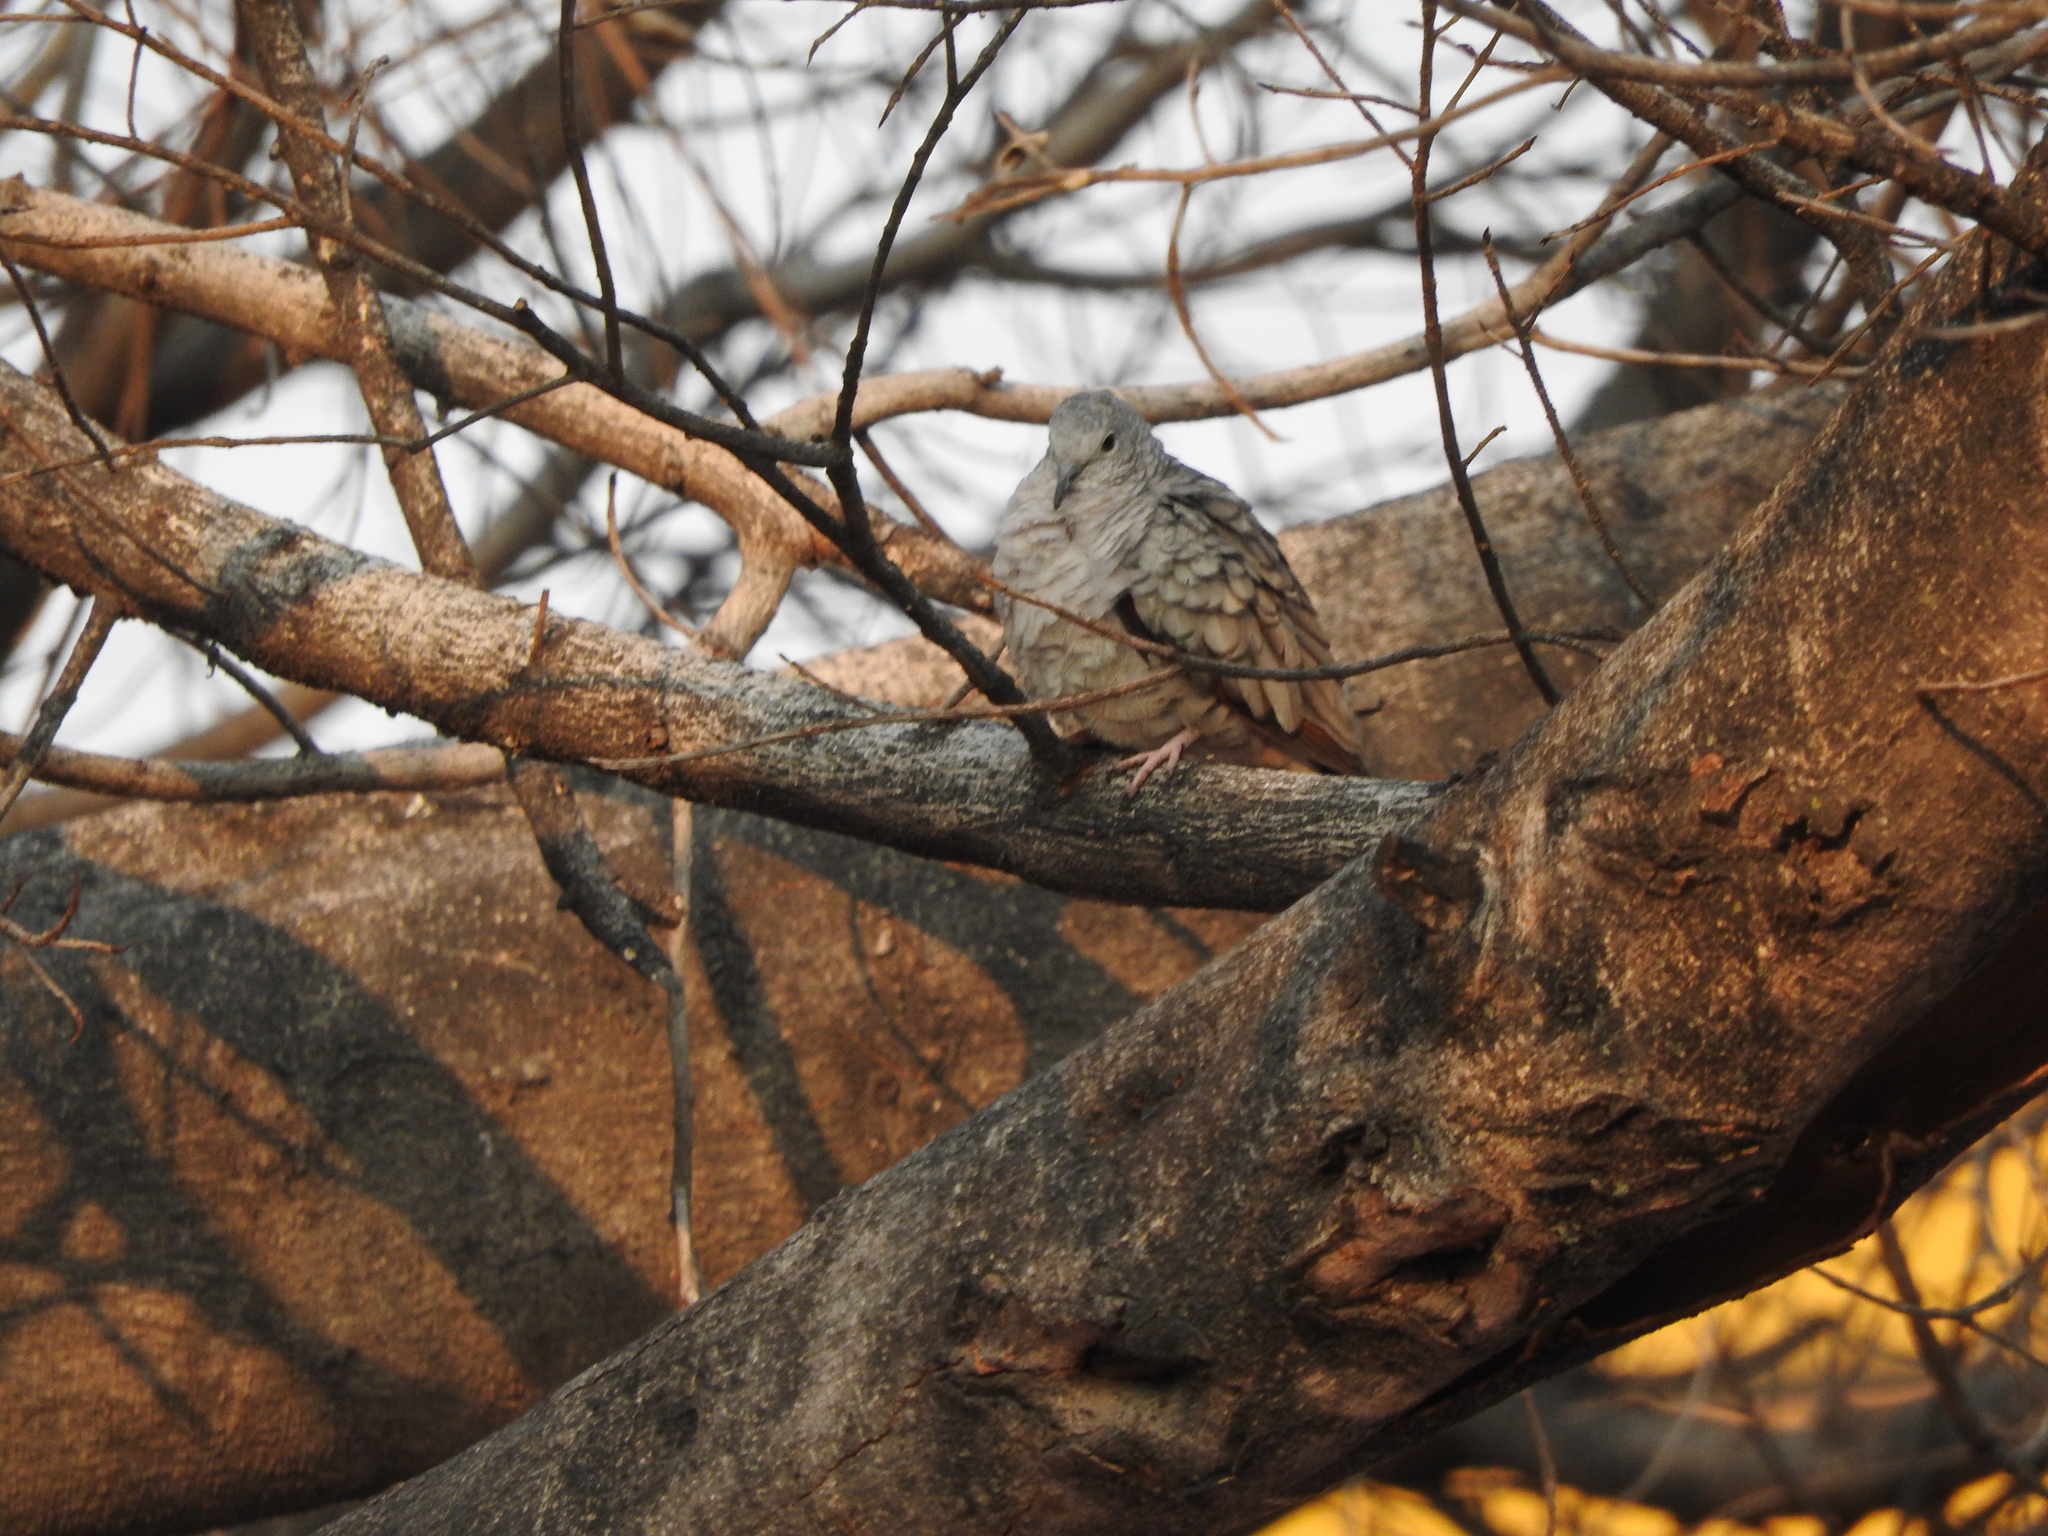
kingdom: Animalia
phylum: Chordata
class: Aves
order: Columbiformes
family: Columbidae
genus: Columbina
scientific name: Columbina inca
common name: Inca dove
